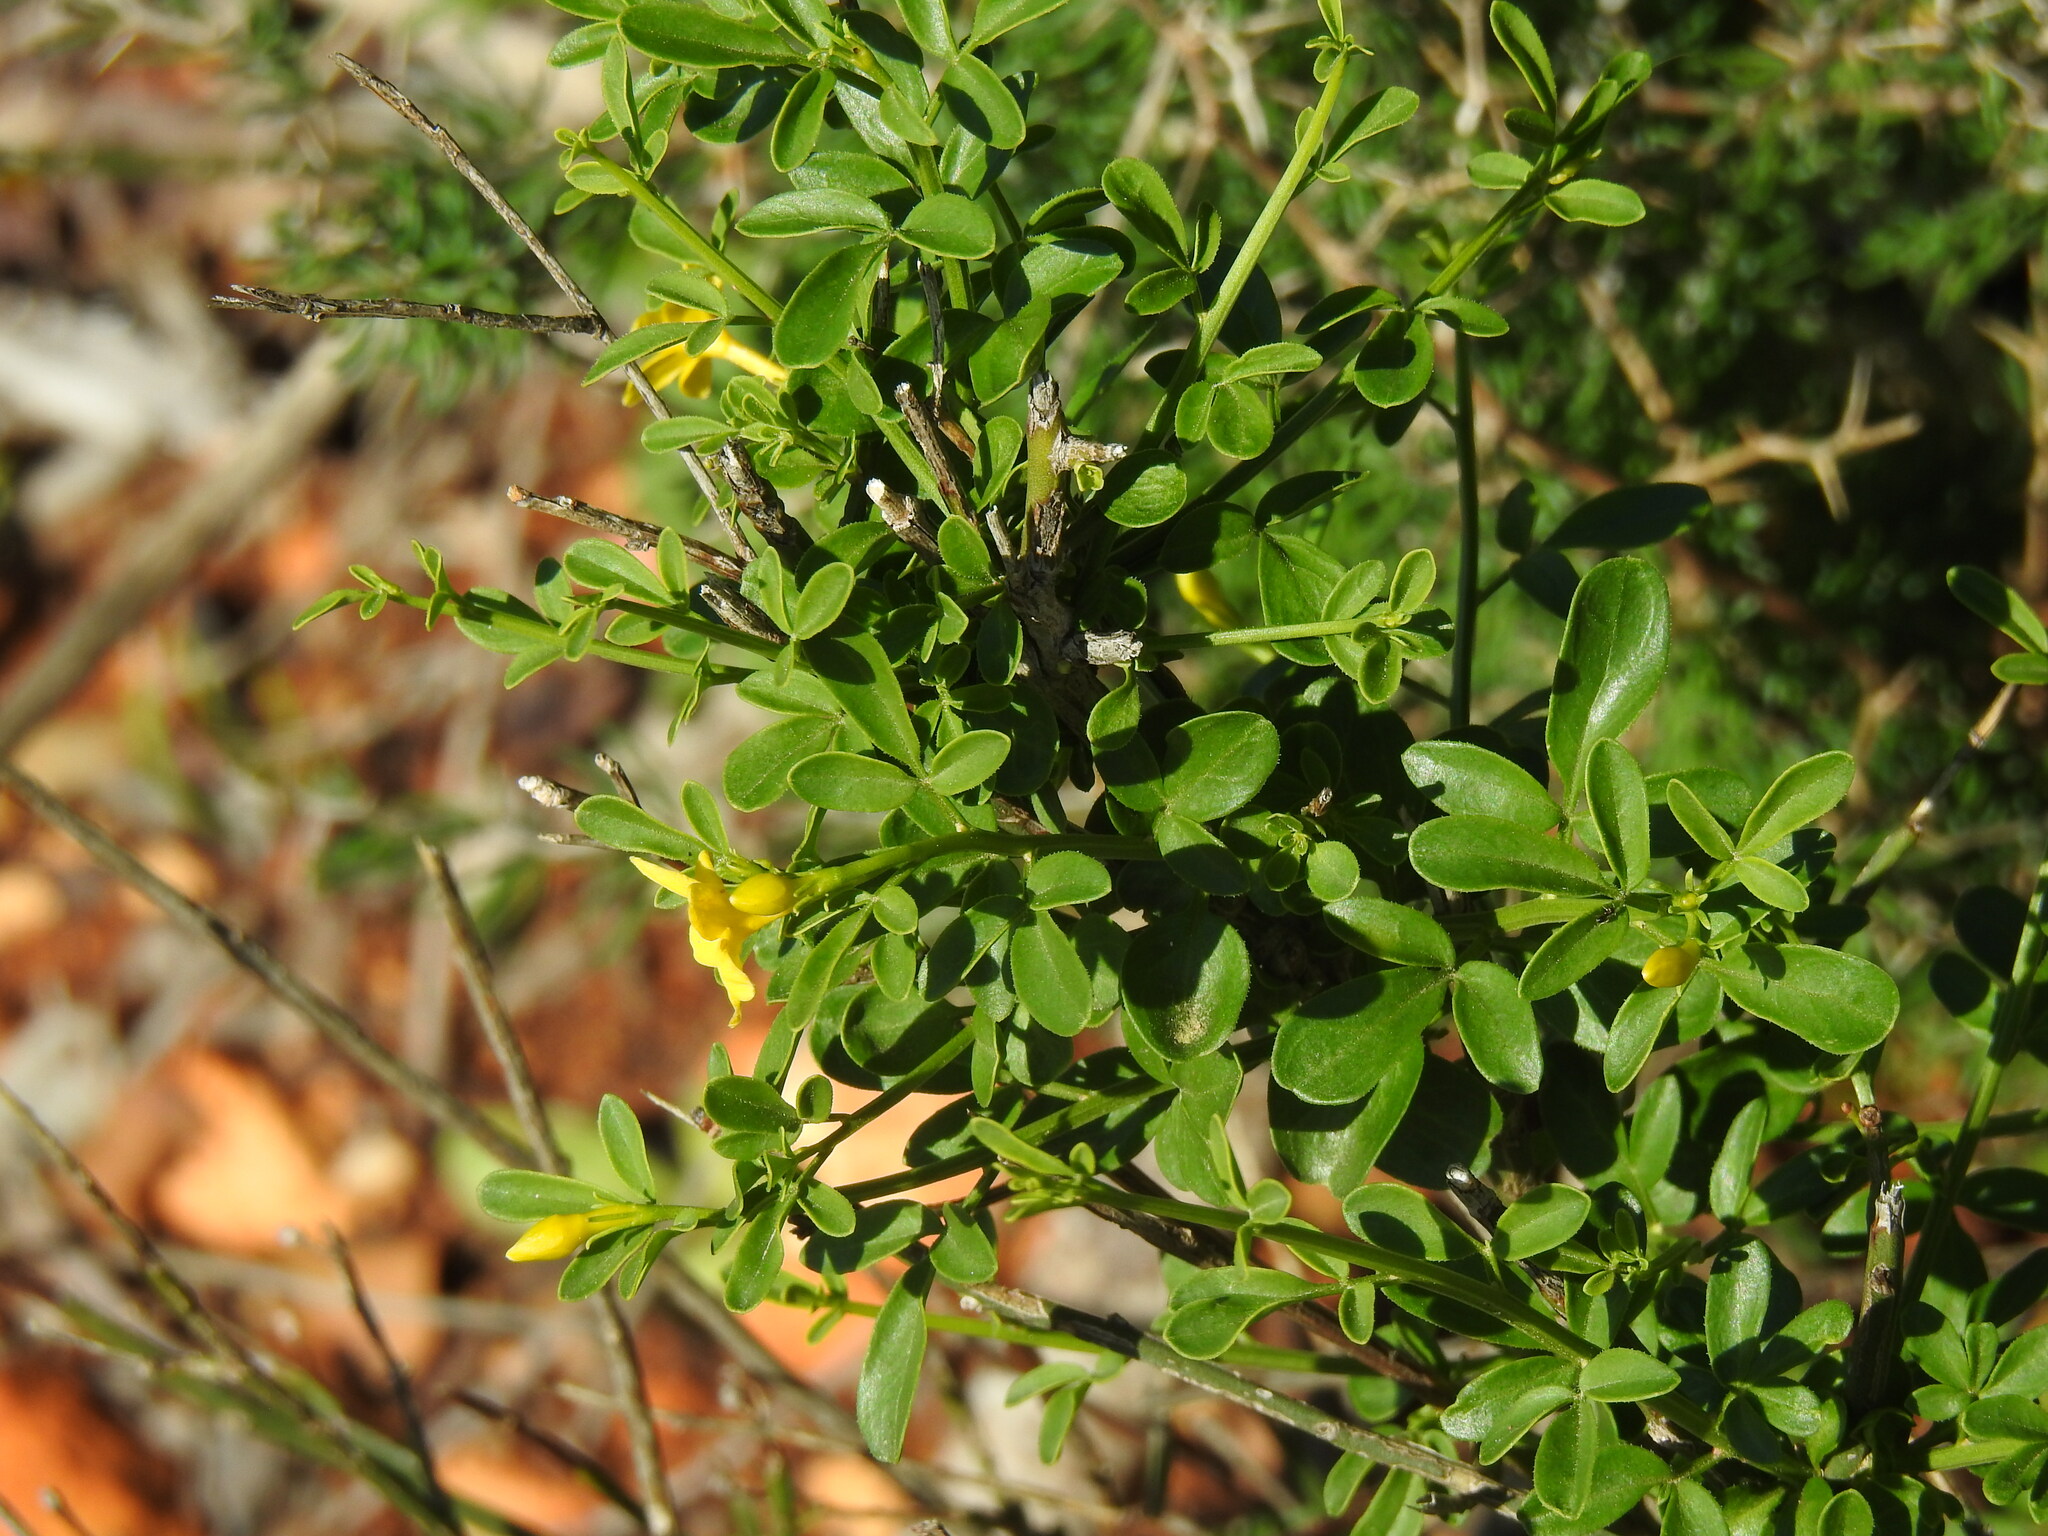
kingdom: Plantae
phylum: Tracheophyta
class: Magnoliopsida
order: Lamiales
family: Oleaceae
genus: Chrysojasminum
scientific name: Chrysojasminum fruticans
